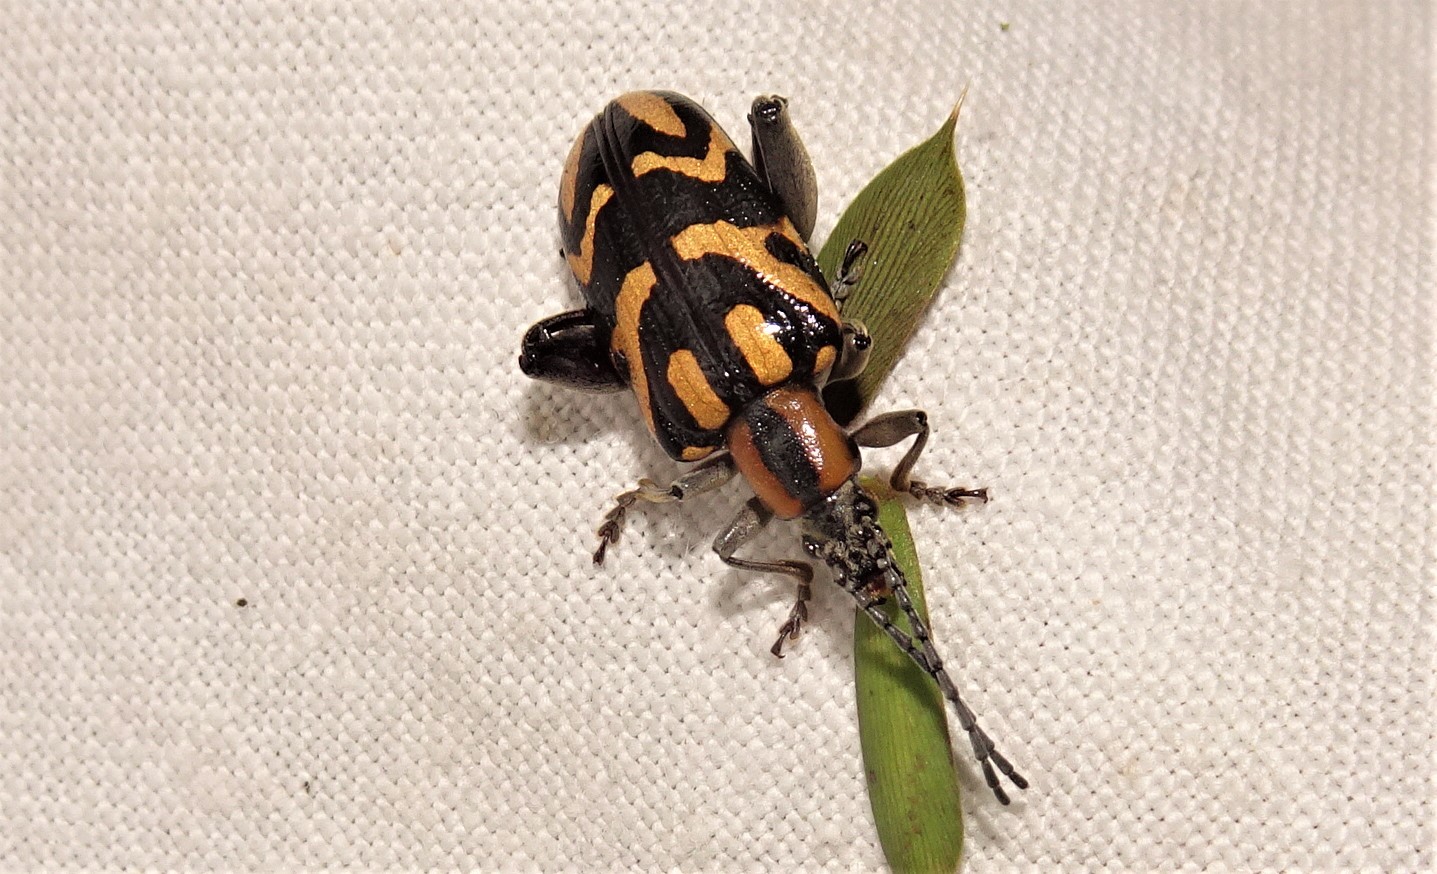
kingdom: Animalia
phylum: Arthropoda
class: Insecta
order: Coleoptera
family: Chrysomelidae
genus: Mecynodera
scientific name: Mecynodera
